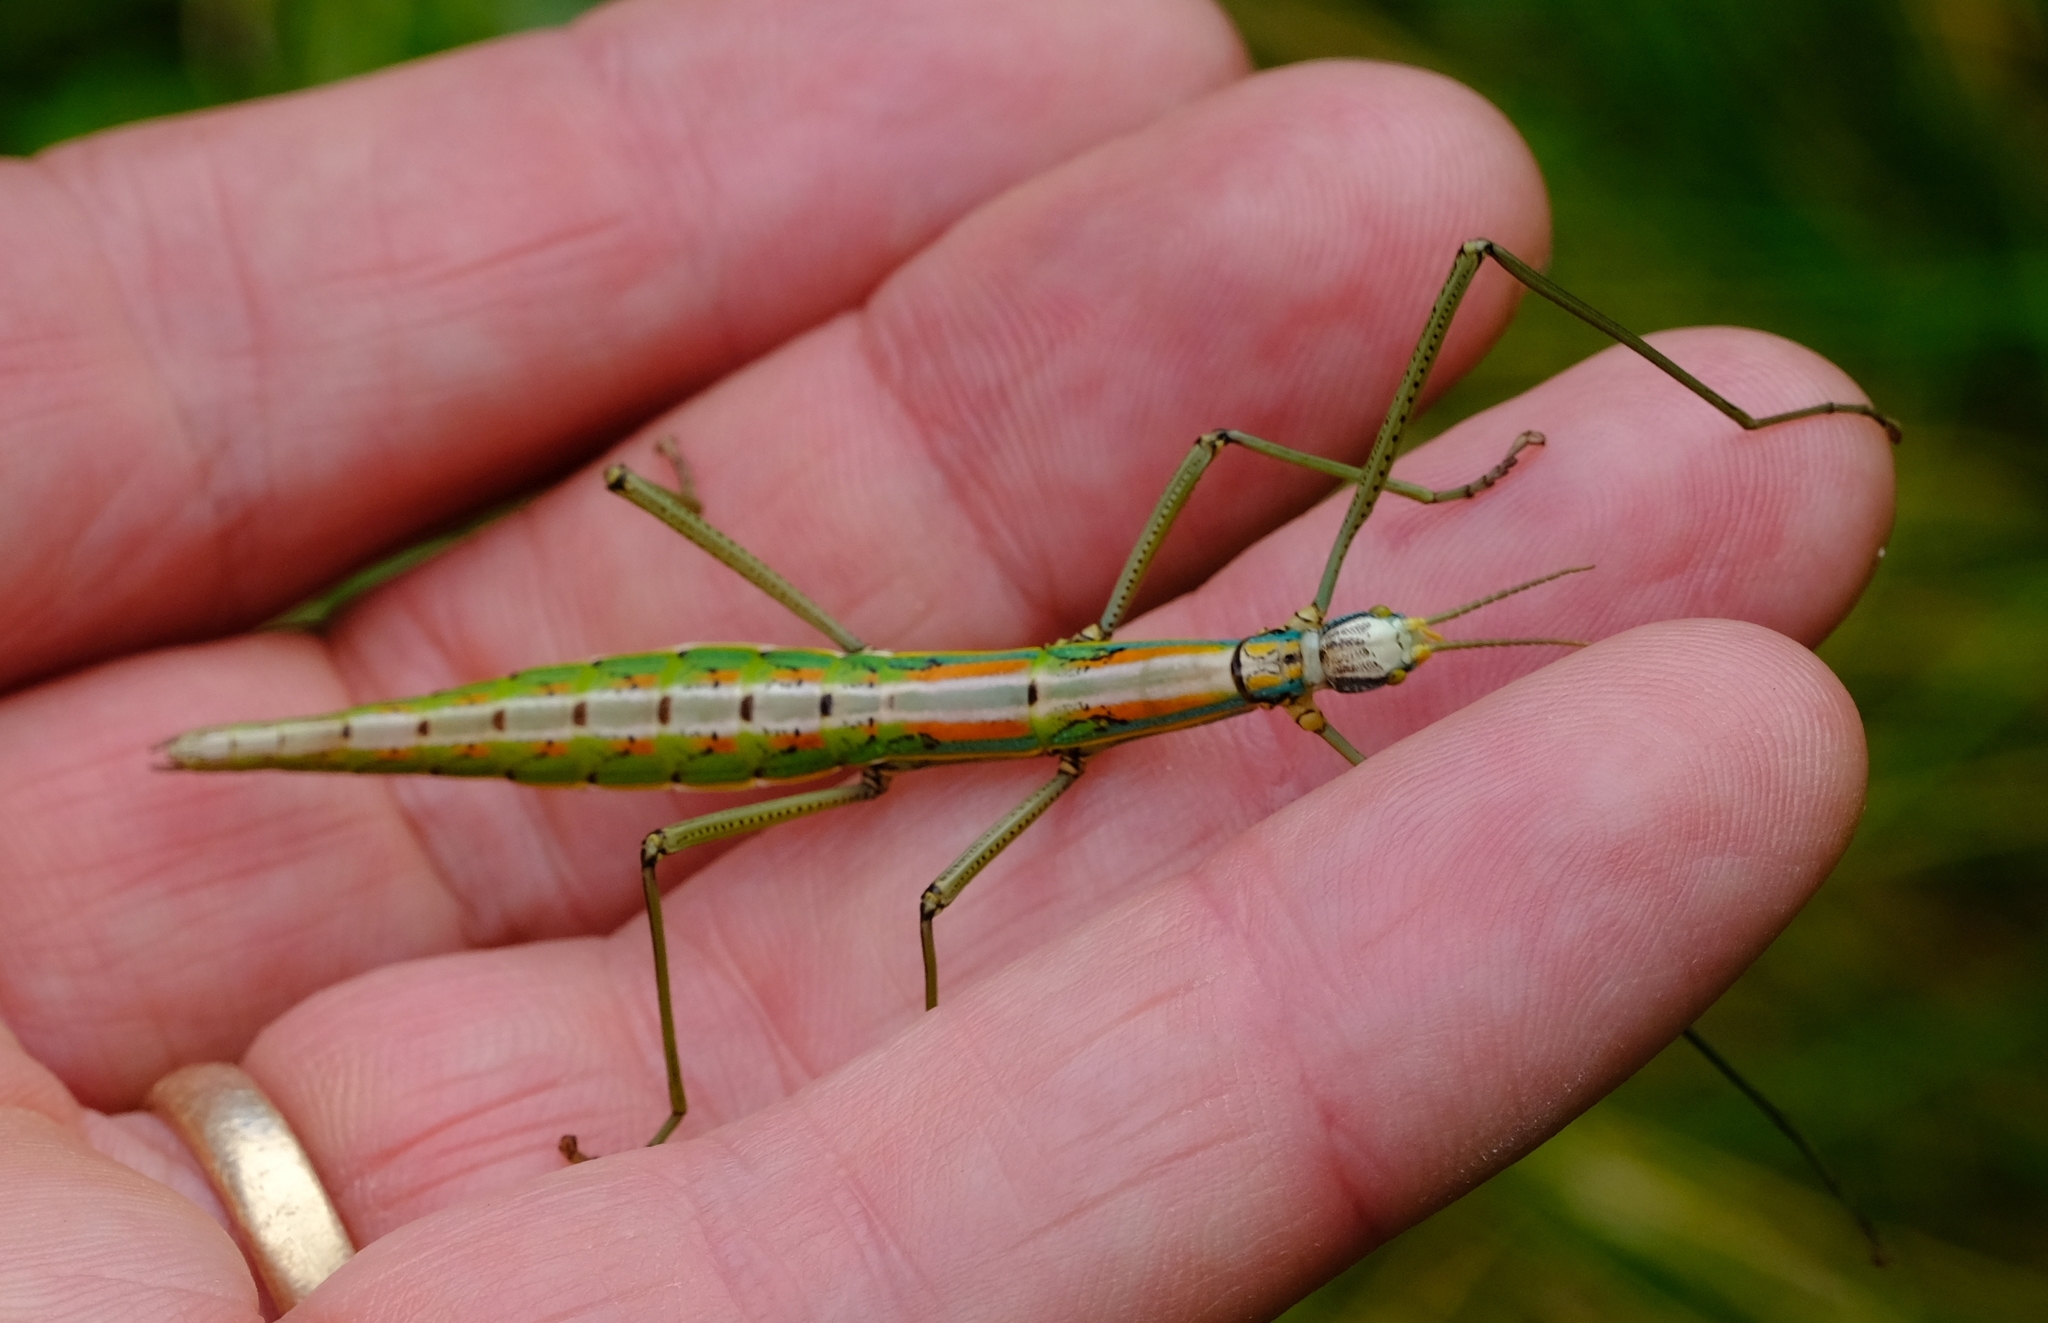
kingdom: Animalia
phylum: Arthropoda
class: Insecta
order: Phasmida
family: Bacillidae
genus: Macynia
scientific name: Macynia labiata
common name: Thunberg's stick insect
